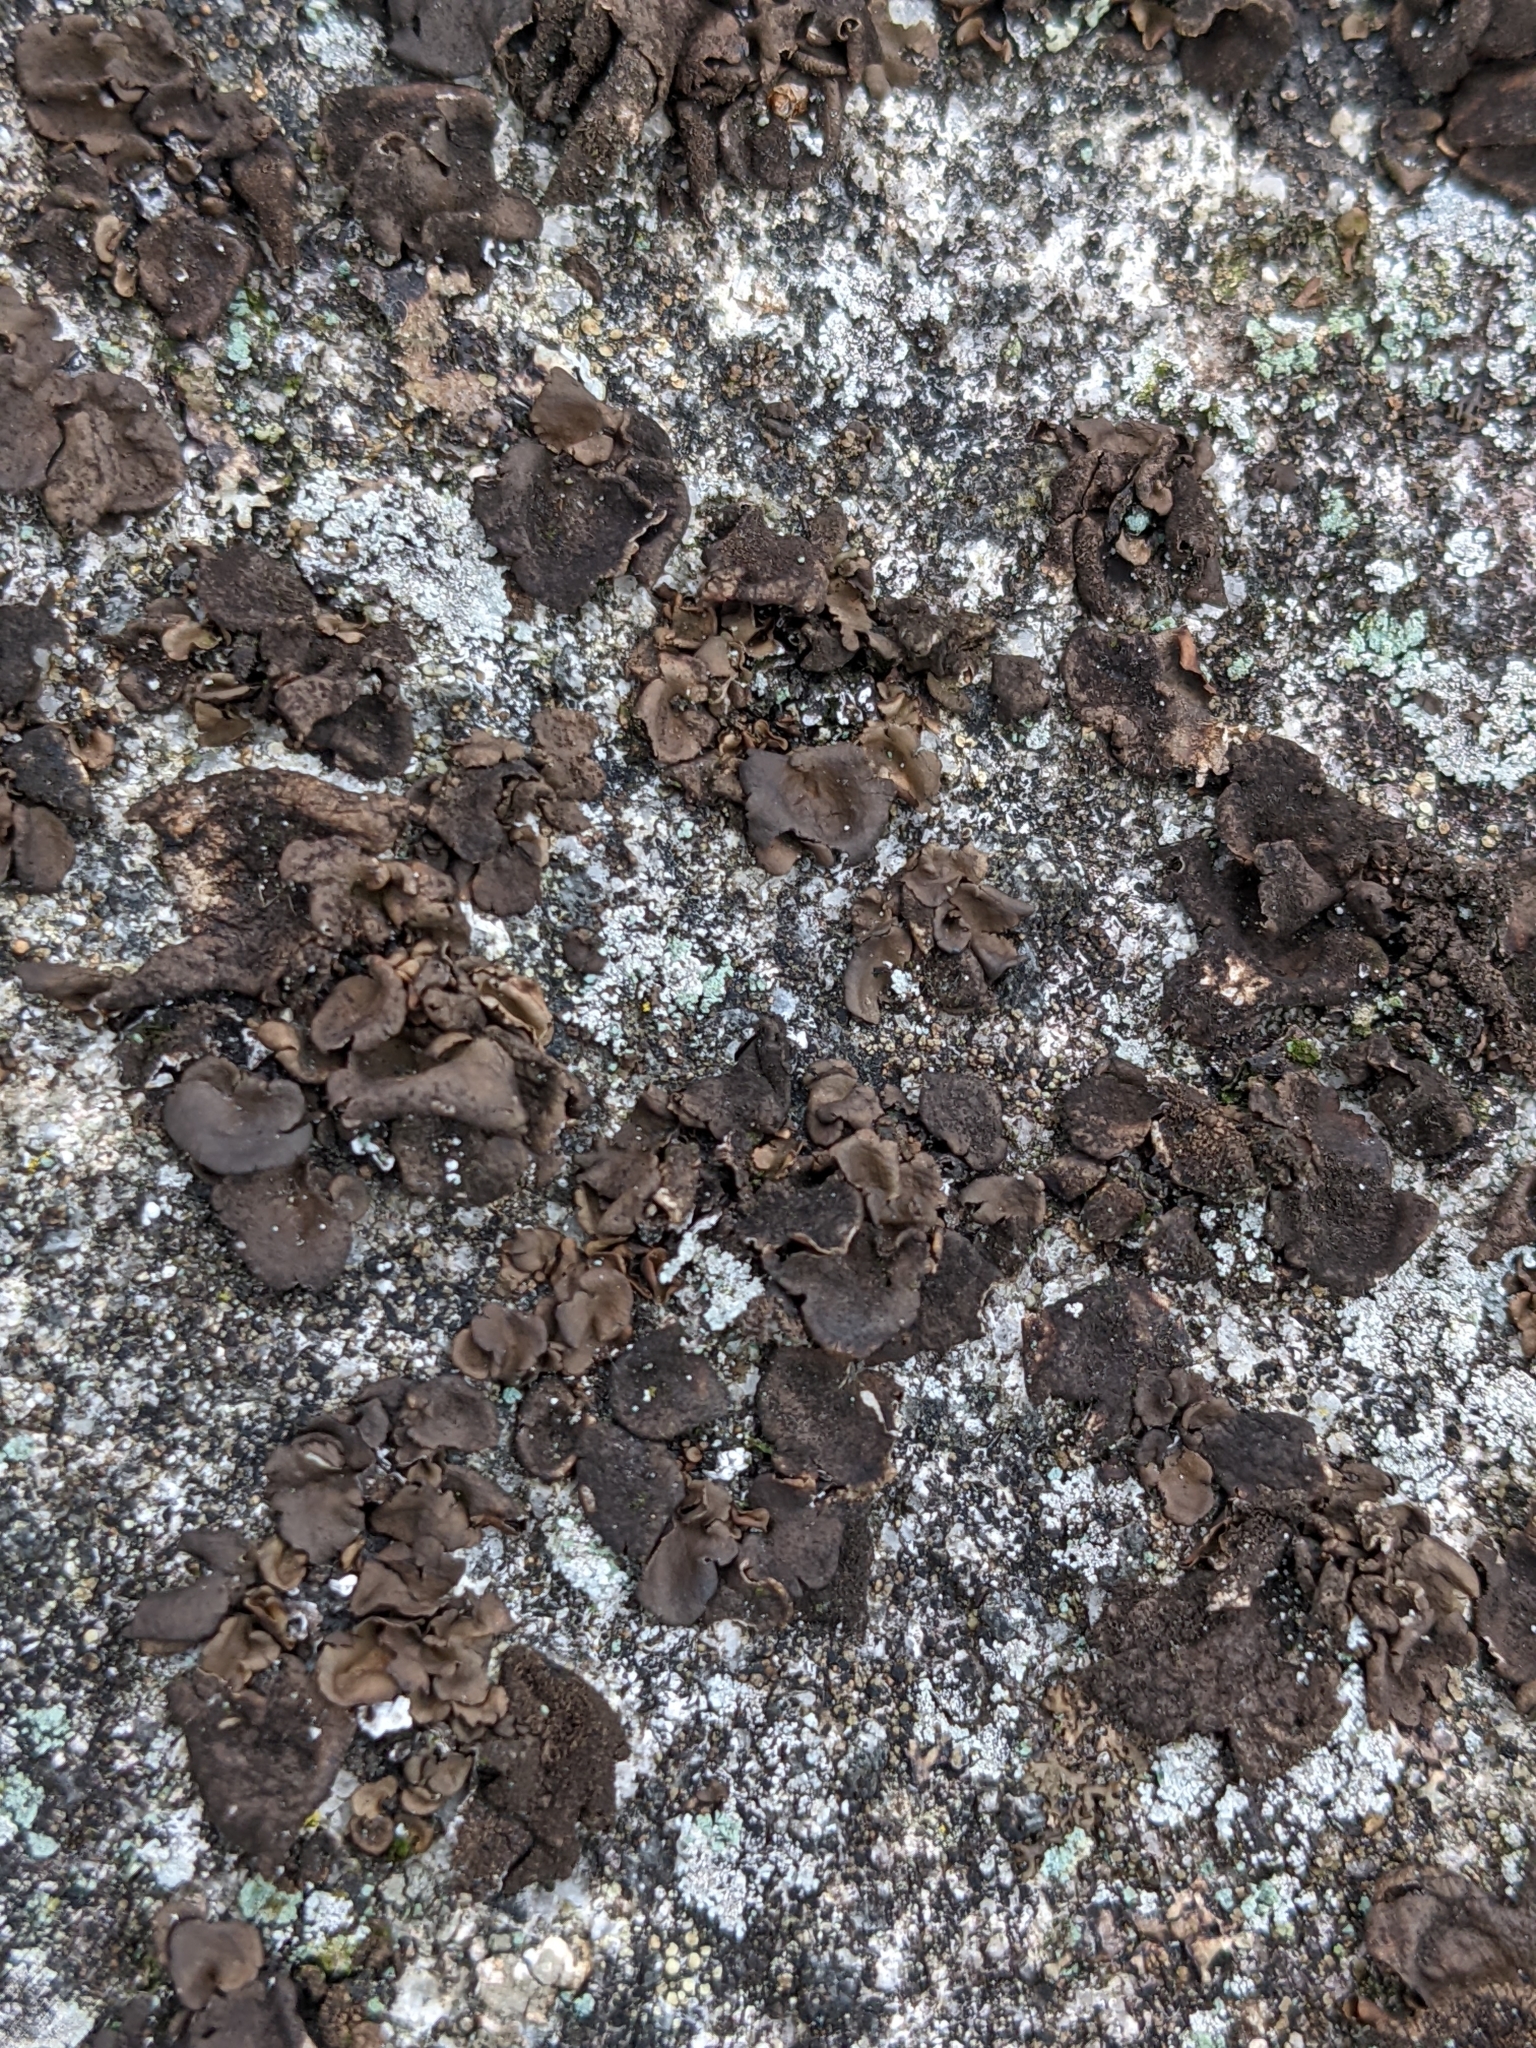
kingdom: Fungi
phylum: Ascomycota
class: Lecanoromycetes
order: Umbilicariales
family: Umbilicariaceae
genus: Umbilicaria
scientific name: Umbilicaria polyphylla
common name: Petalled rocktripe lichen
